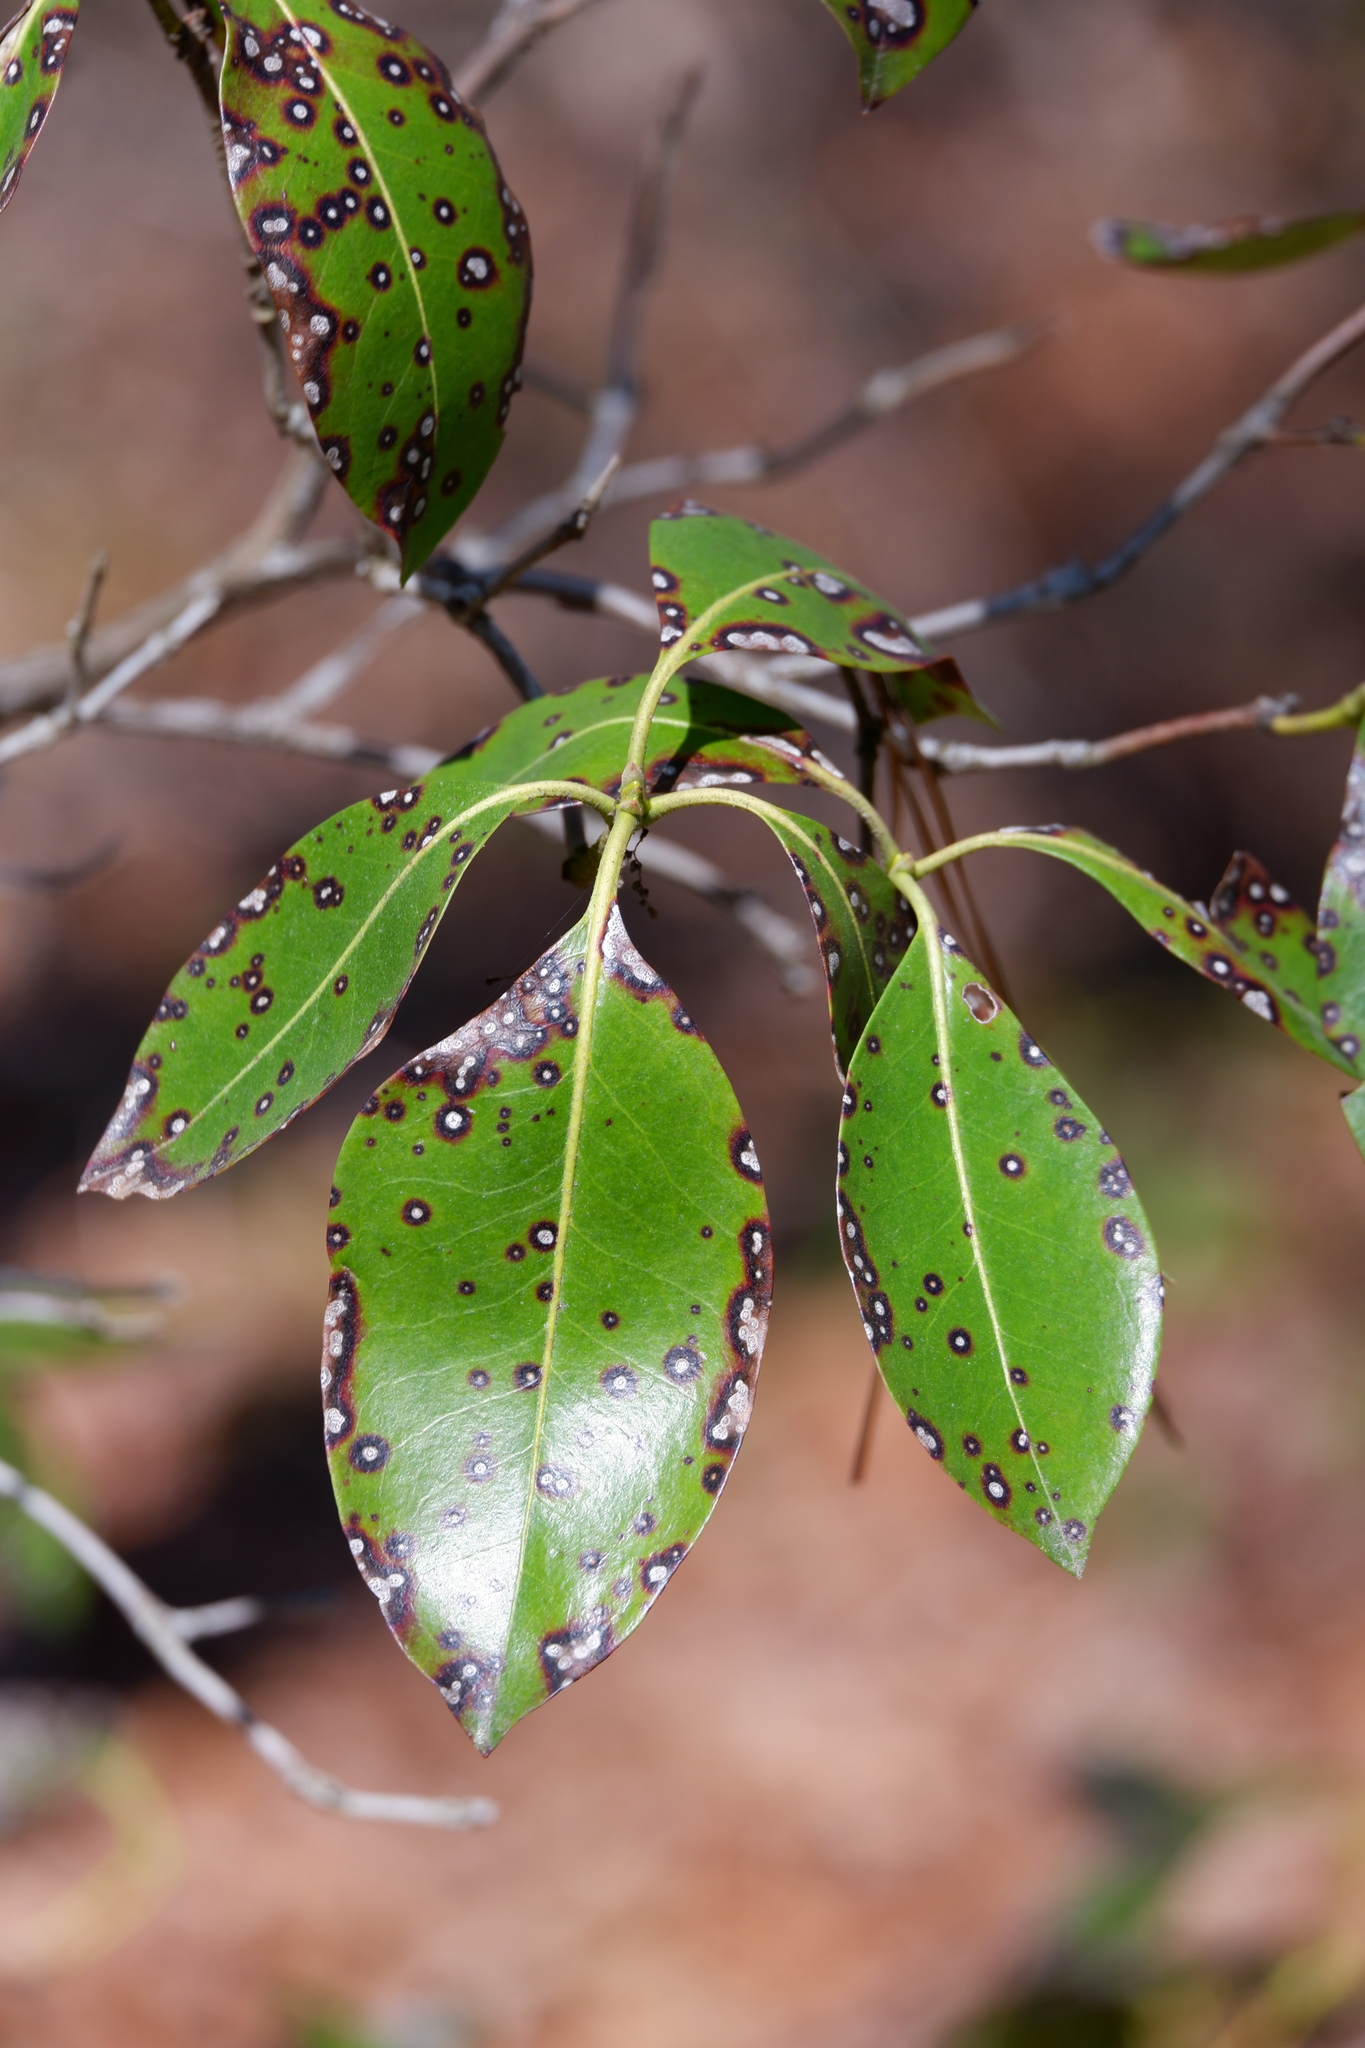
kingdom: Fungi
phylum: Ascomycota
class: Dothideomycetes
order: Mycosphaerellales
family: Mycosphaerellaceae
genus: Mycosphaerella
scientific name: Mycosphaerella colorata
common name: Mountain laurel leaf spot
